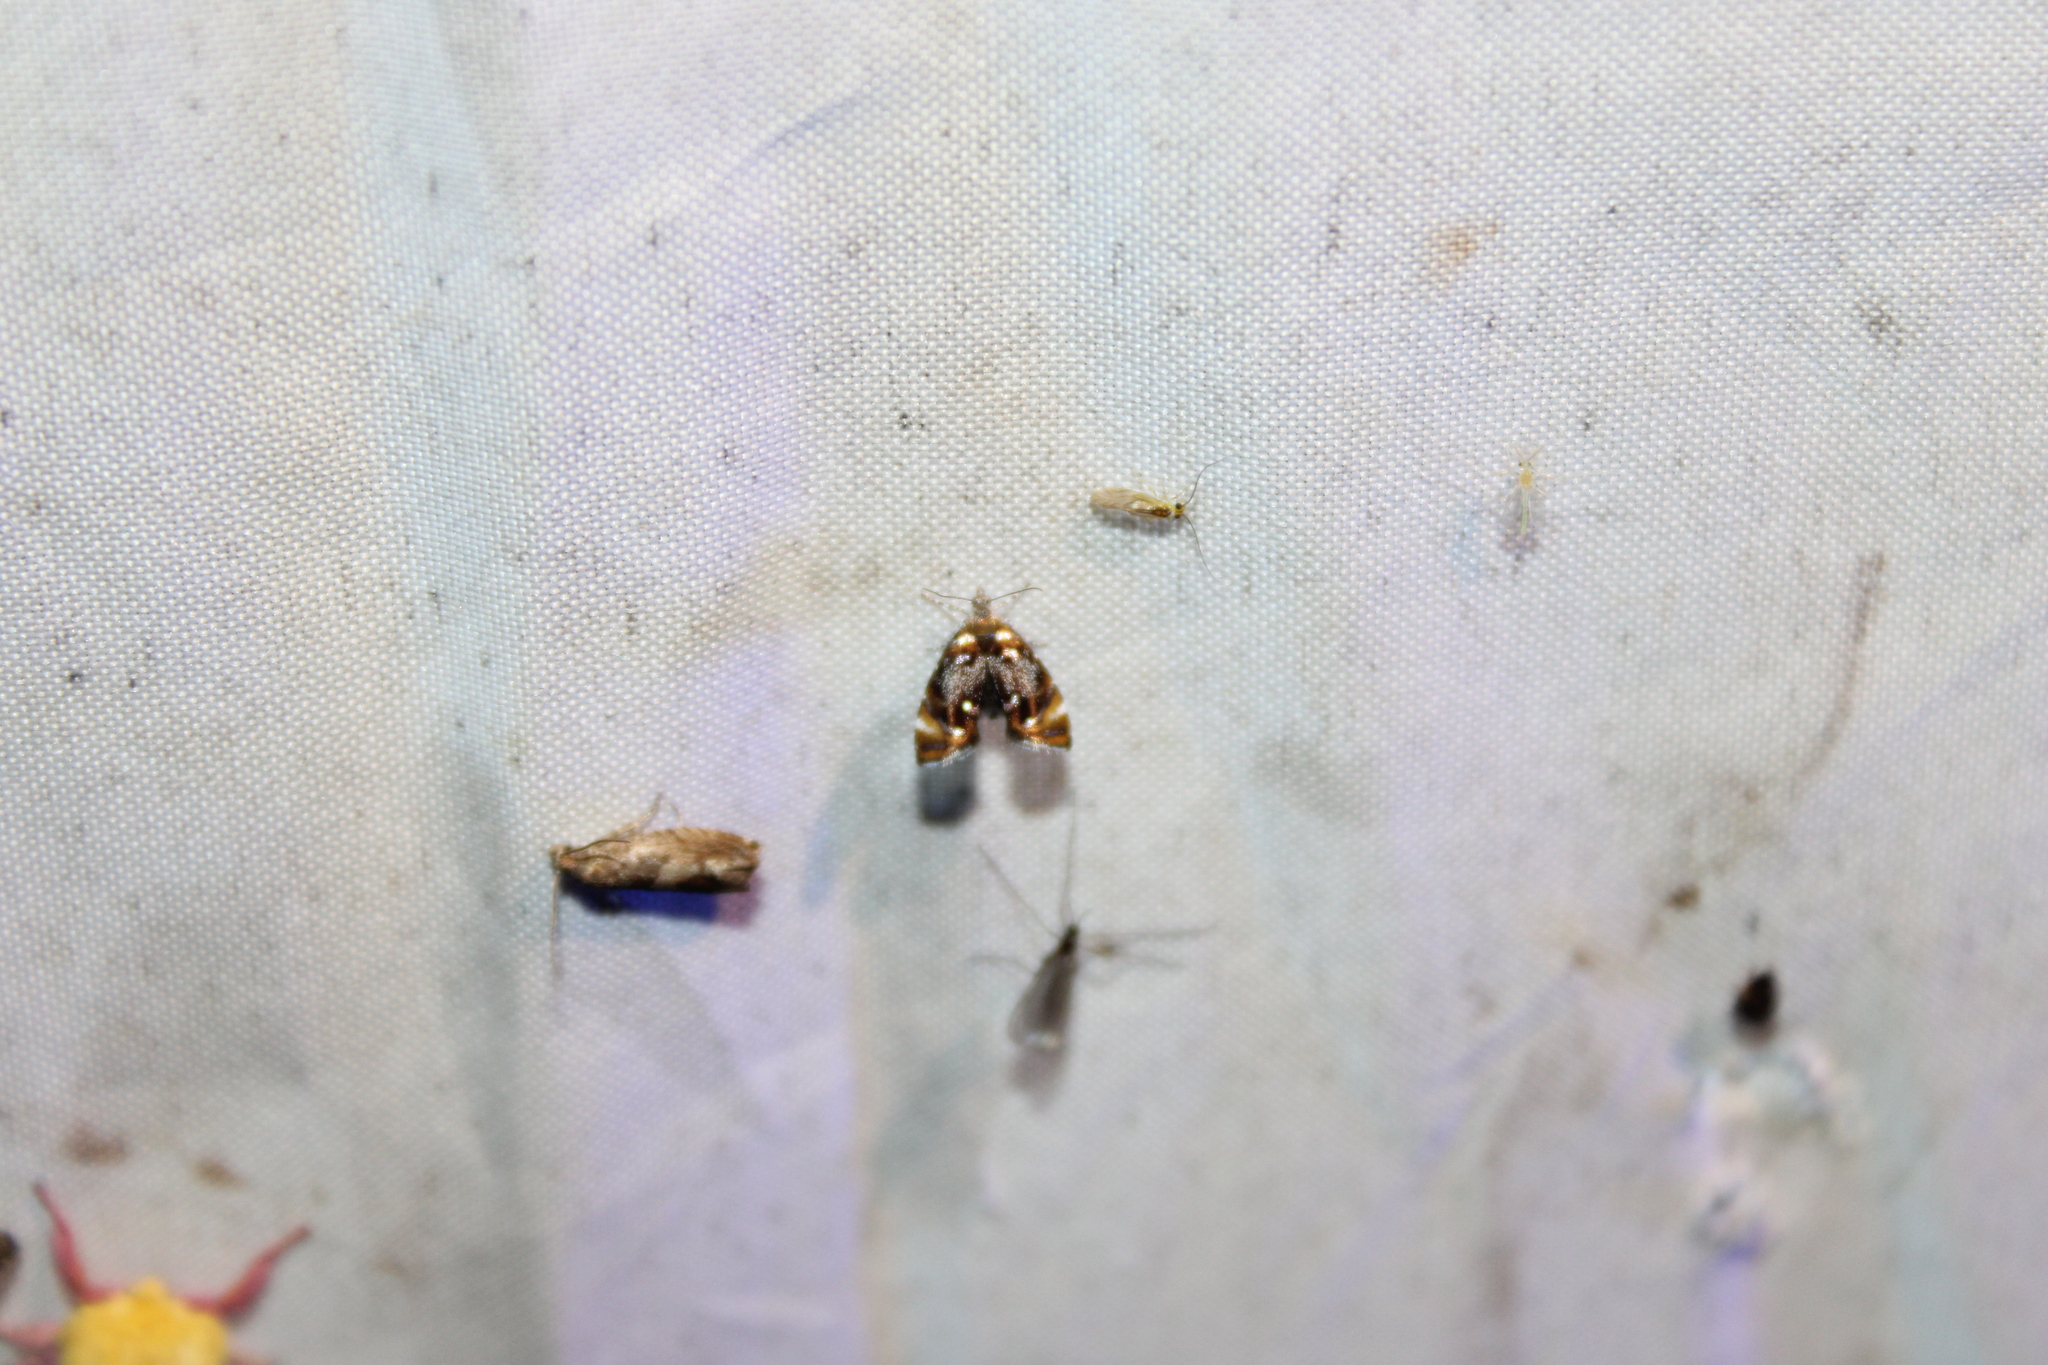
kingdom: Animalia
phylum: Arthropoda
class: Insecta
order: Lepidoptera
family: Choreutidae
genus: Prochoreutis
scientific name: Prochoreutis inflatella
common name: Skullcap skeletonizer moth
